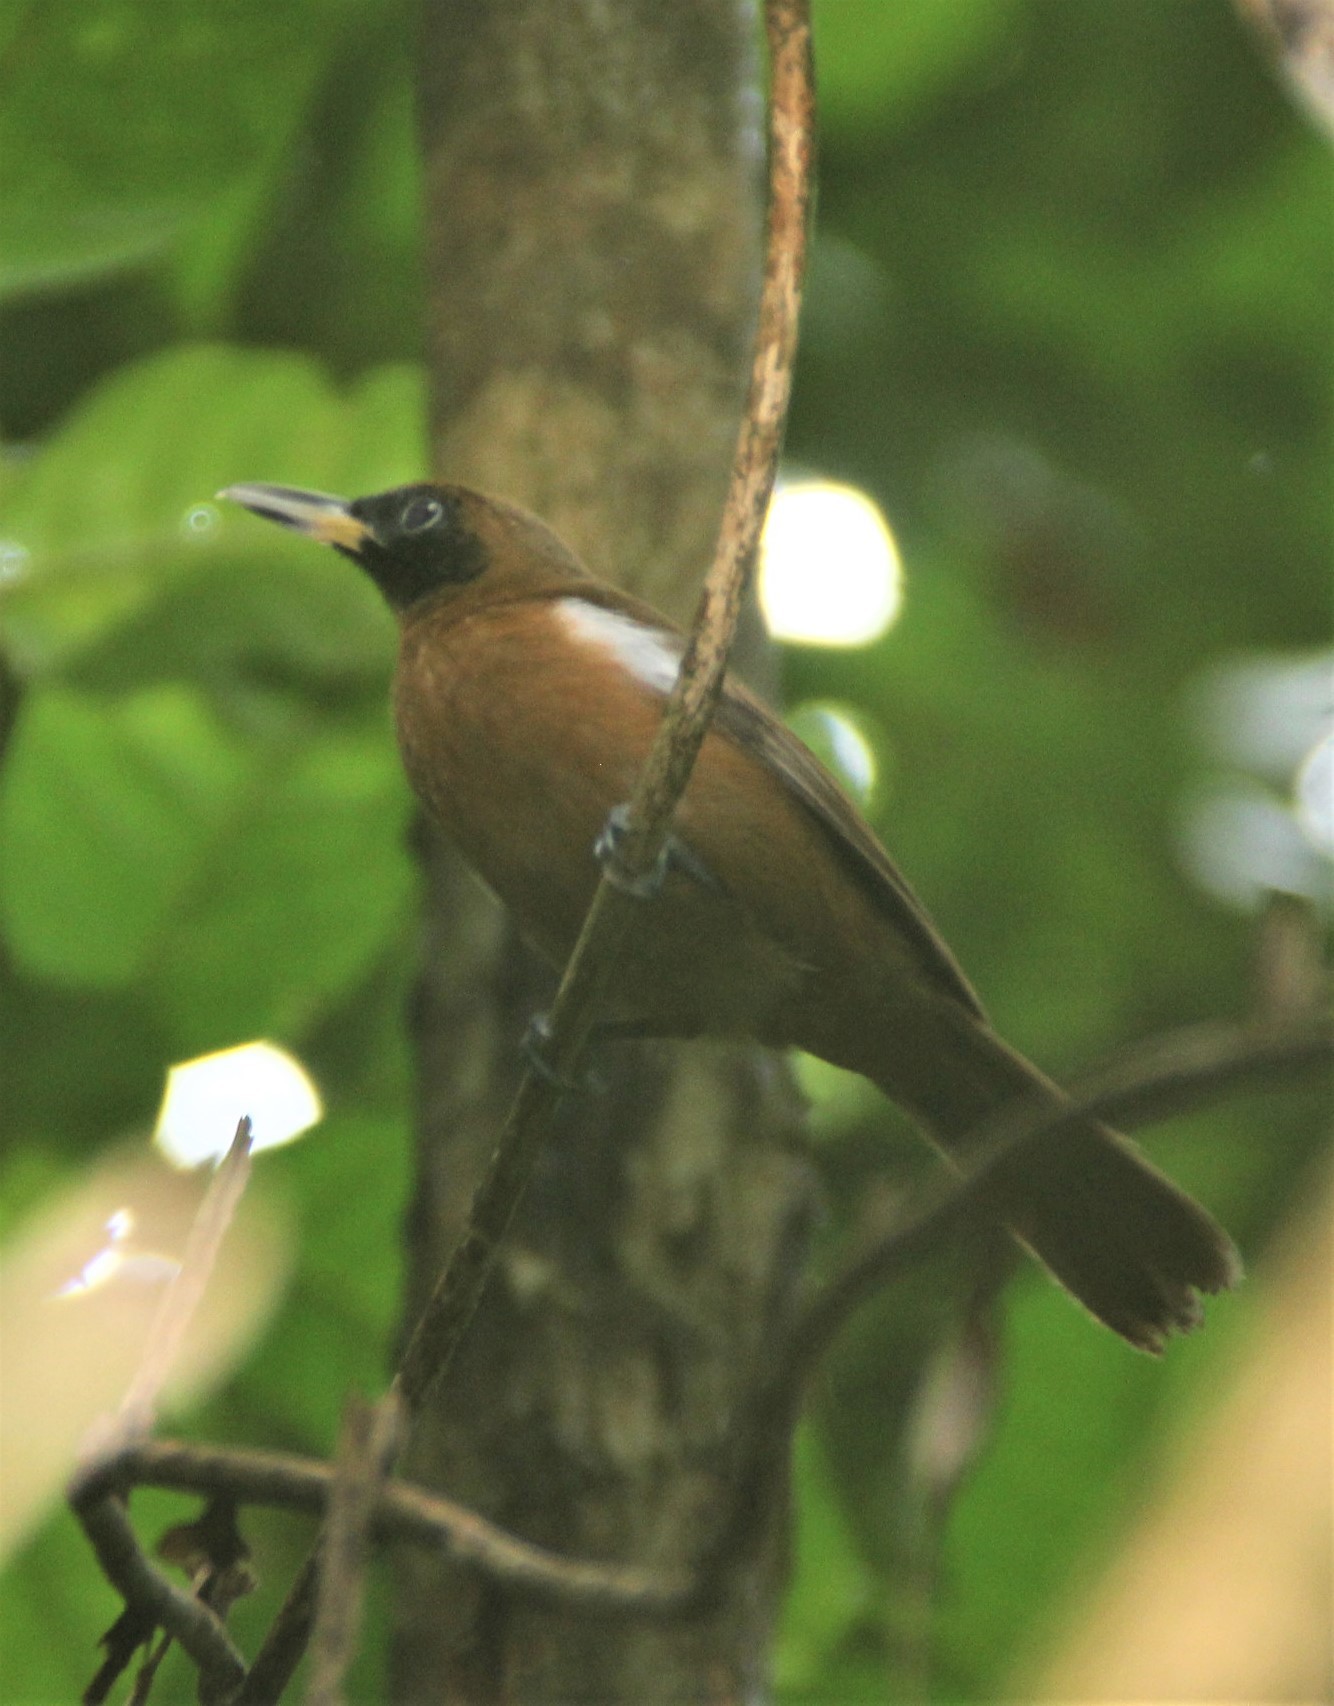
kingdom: Animalia
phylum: Chordata
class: Aves
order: Passeriformes
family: Monarchidae
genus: Clytorhynchus
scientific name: Clytorhynchus hamlini
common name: Rennell shrikebill
